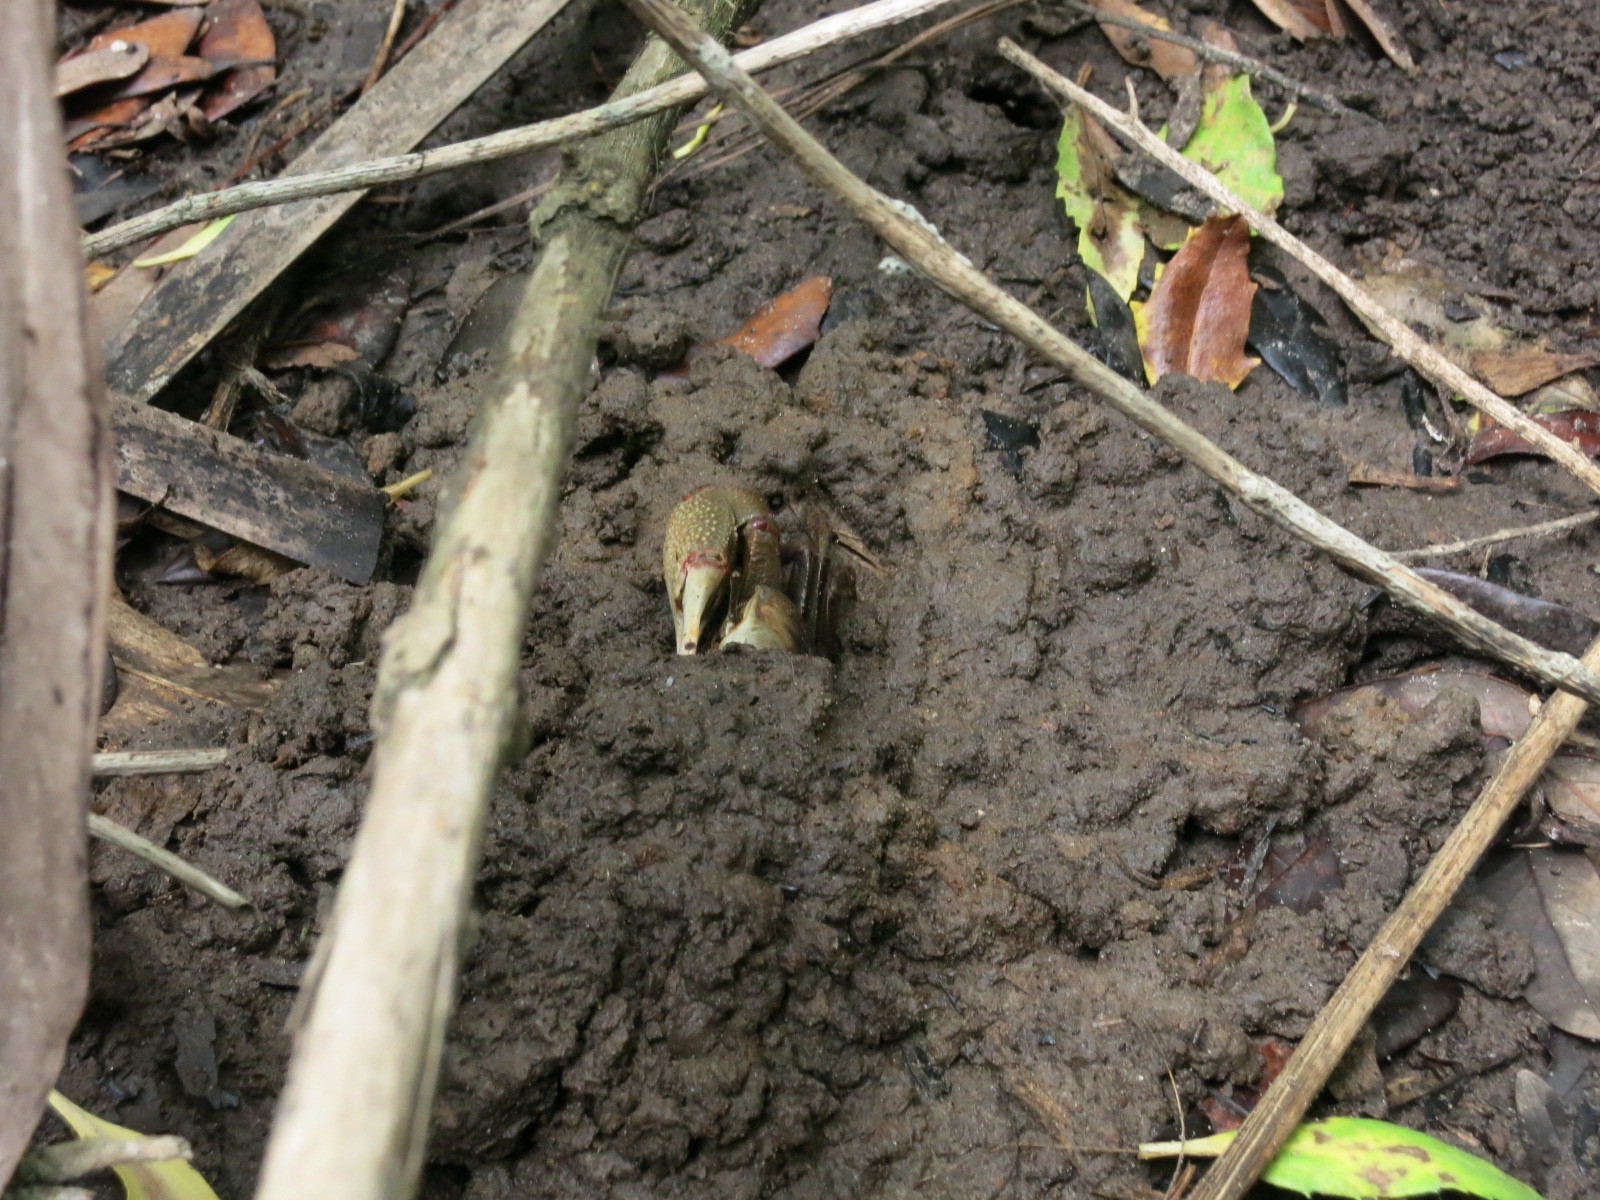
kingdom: Animalia
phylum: Arthropoda
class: Malacostraca
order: Decapoda
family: Ocypodidae
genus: Minuca
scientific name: Minuca minax
